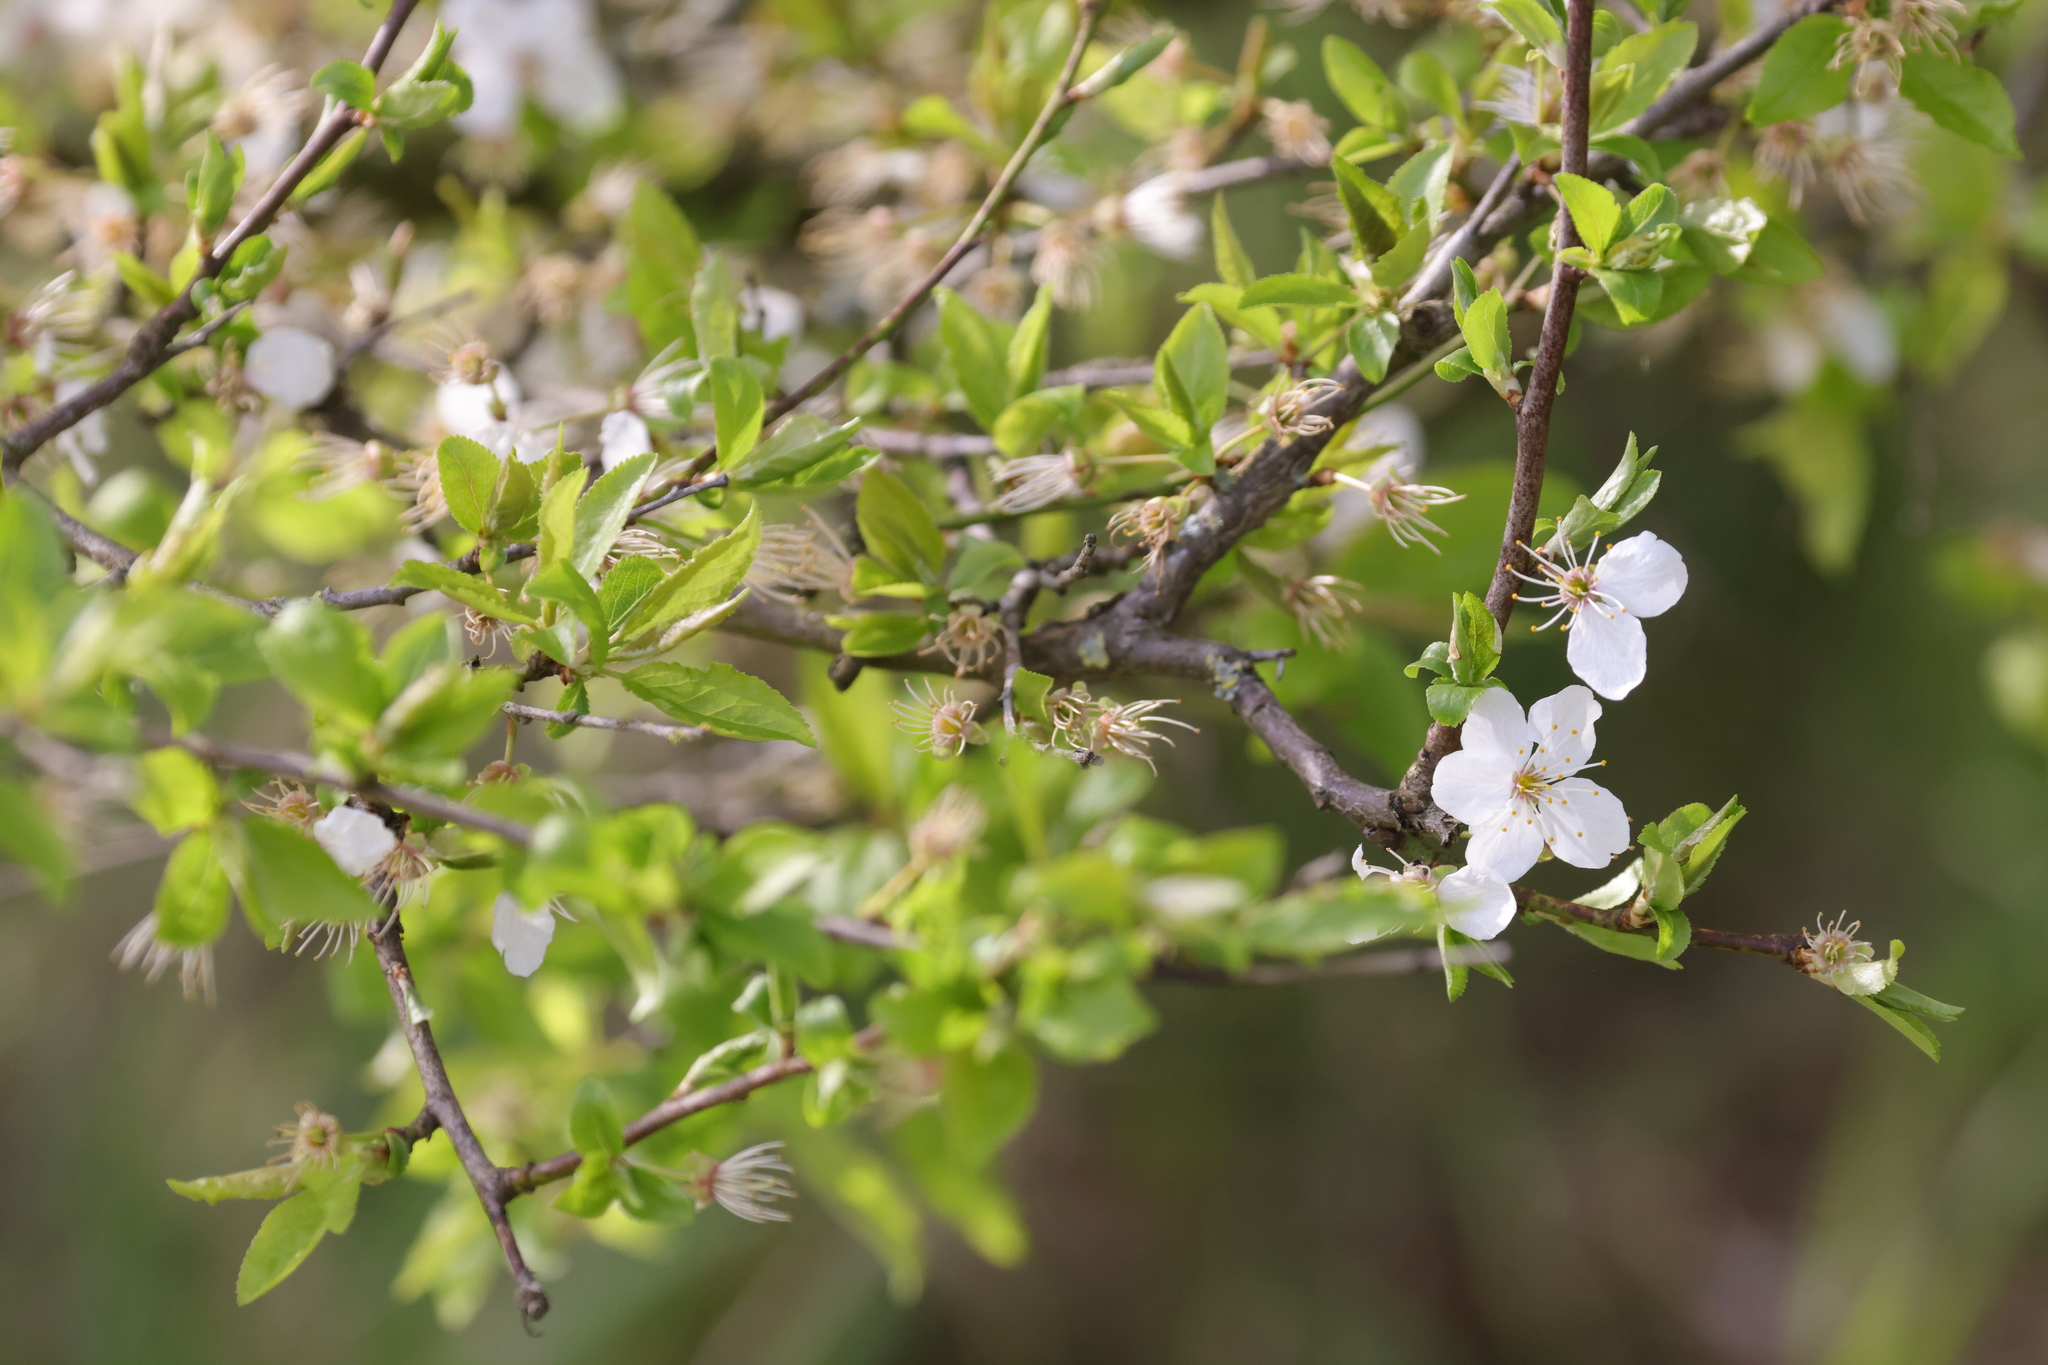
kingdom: Plantae
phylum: Tracheophyta
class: Magnoliopsida
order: Rosales
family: Rosaceae
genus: Prunus
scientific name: Prunus cerasifera
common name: Cherry plum
